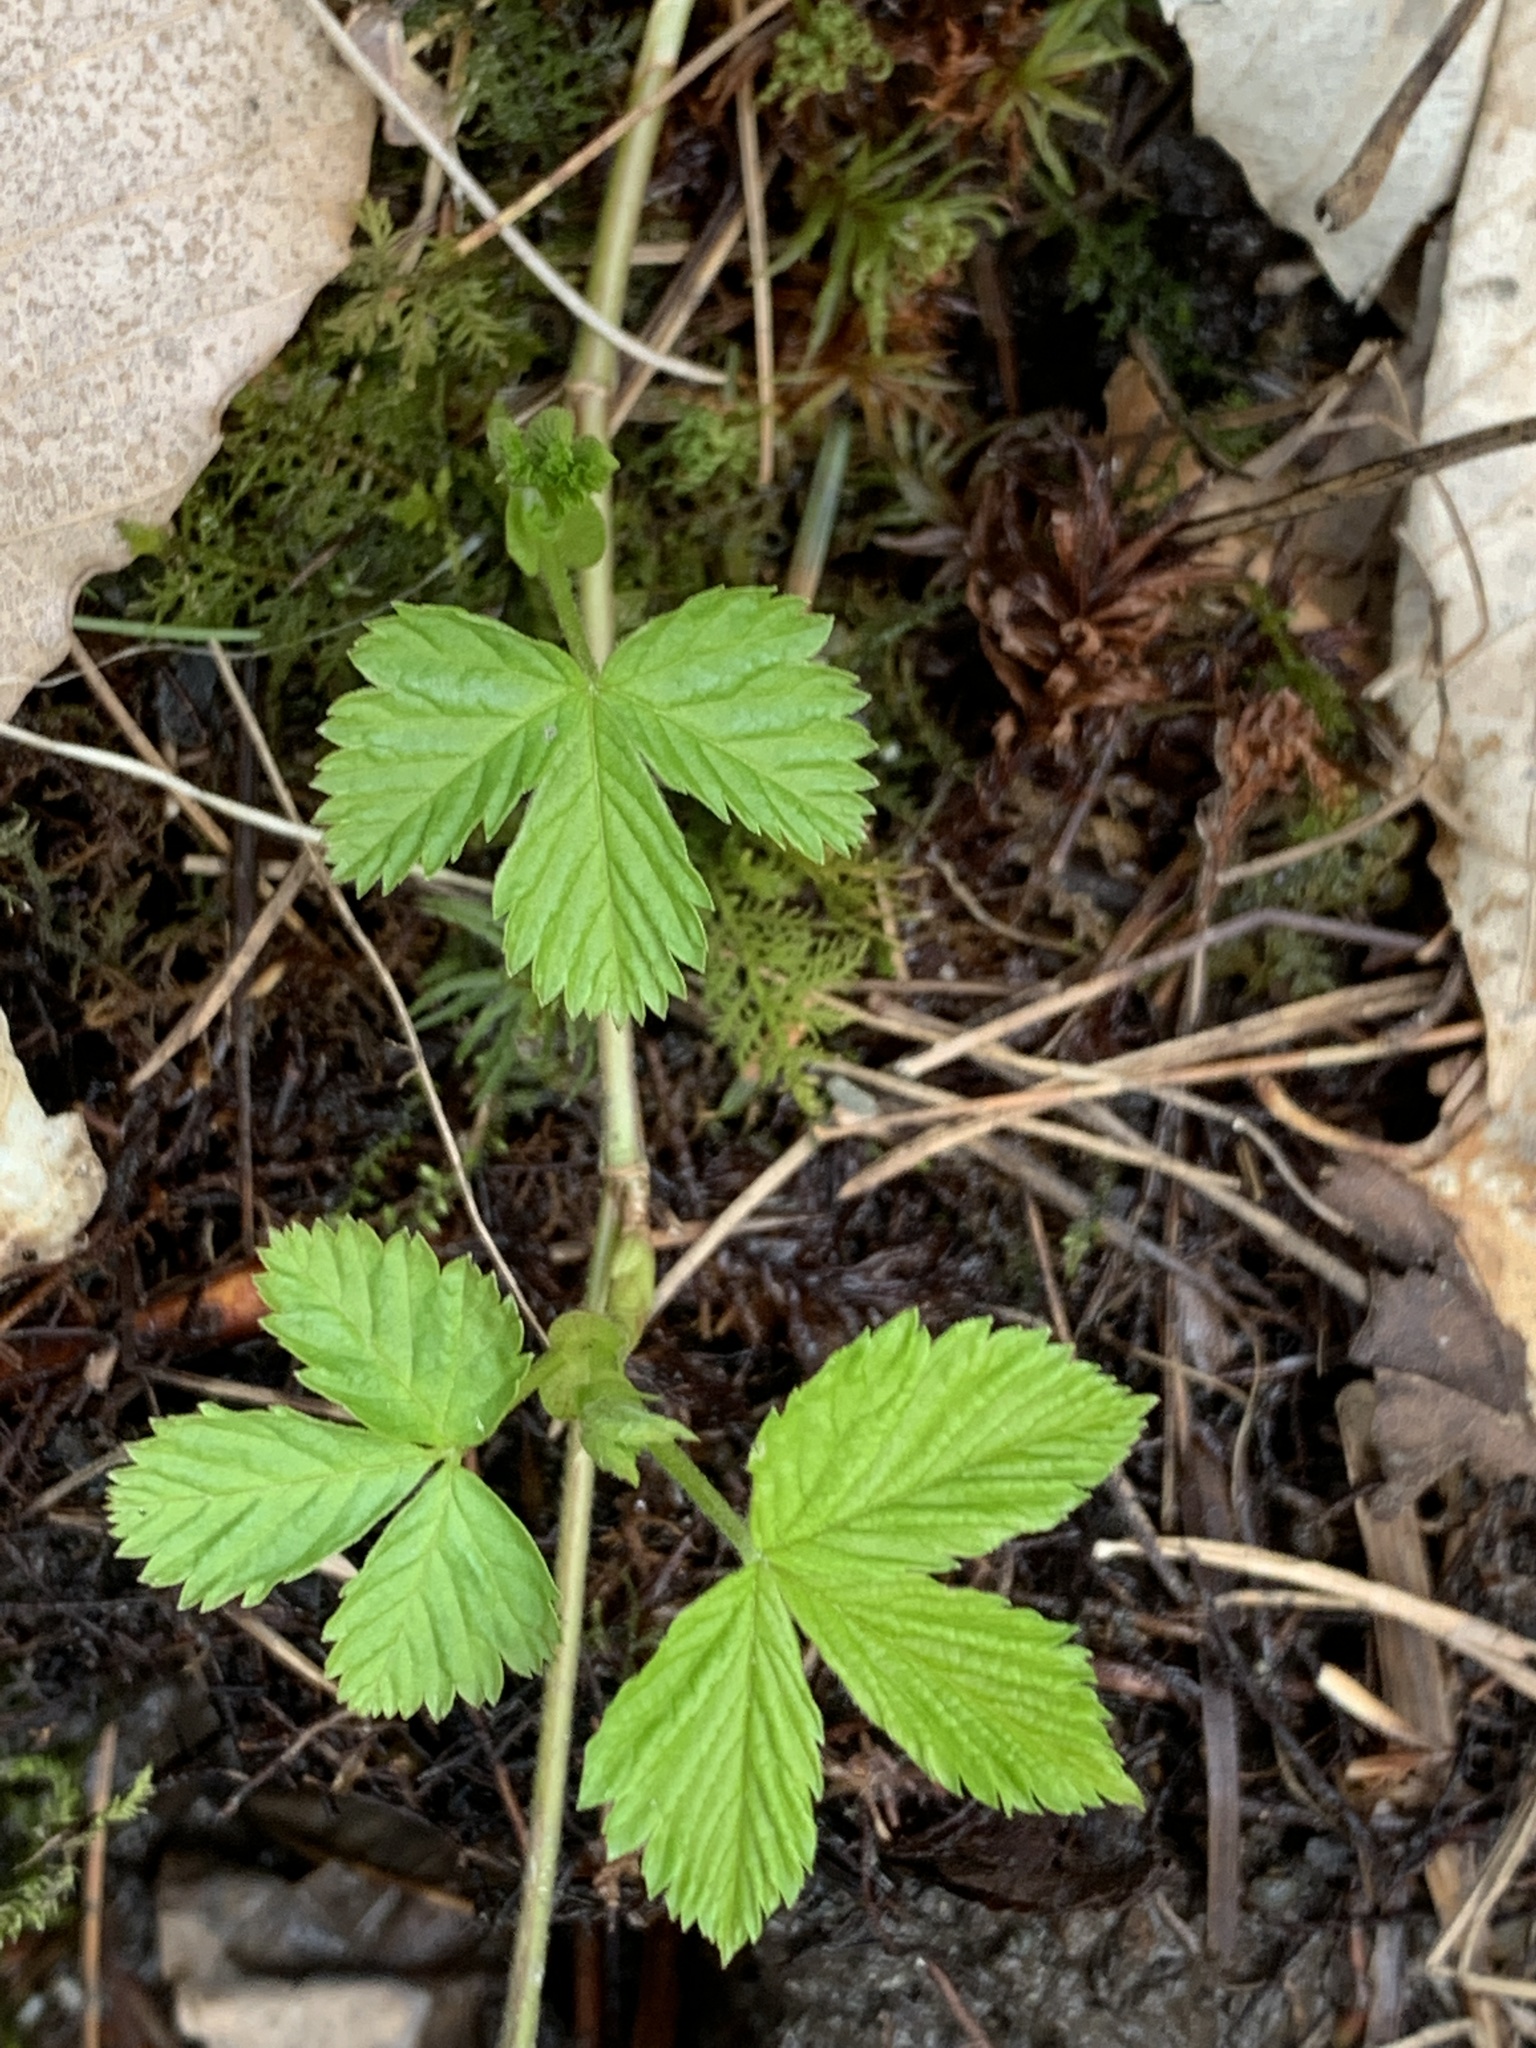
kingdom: Plantae
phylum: Tracheophyta
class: Magnoliopsida
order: Rosales
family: Rosaceae
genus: Rubus
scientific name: Rubus pubescens
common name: Dwarf raspberry
